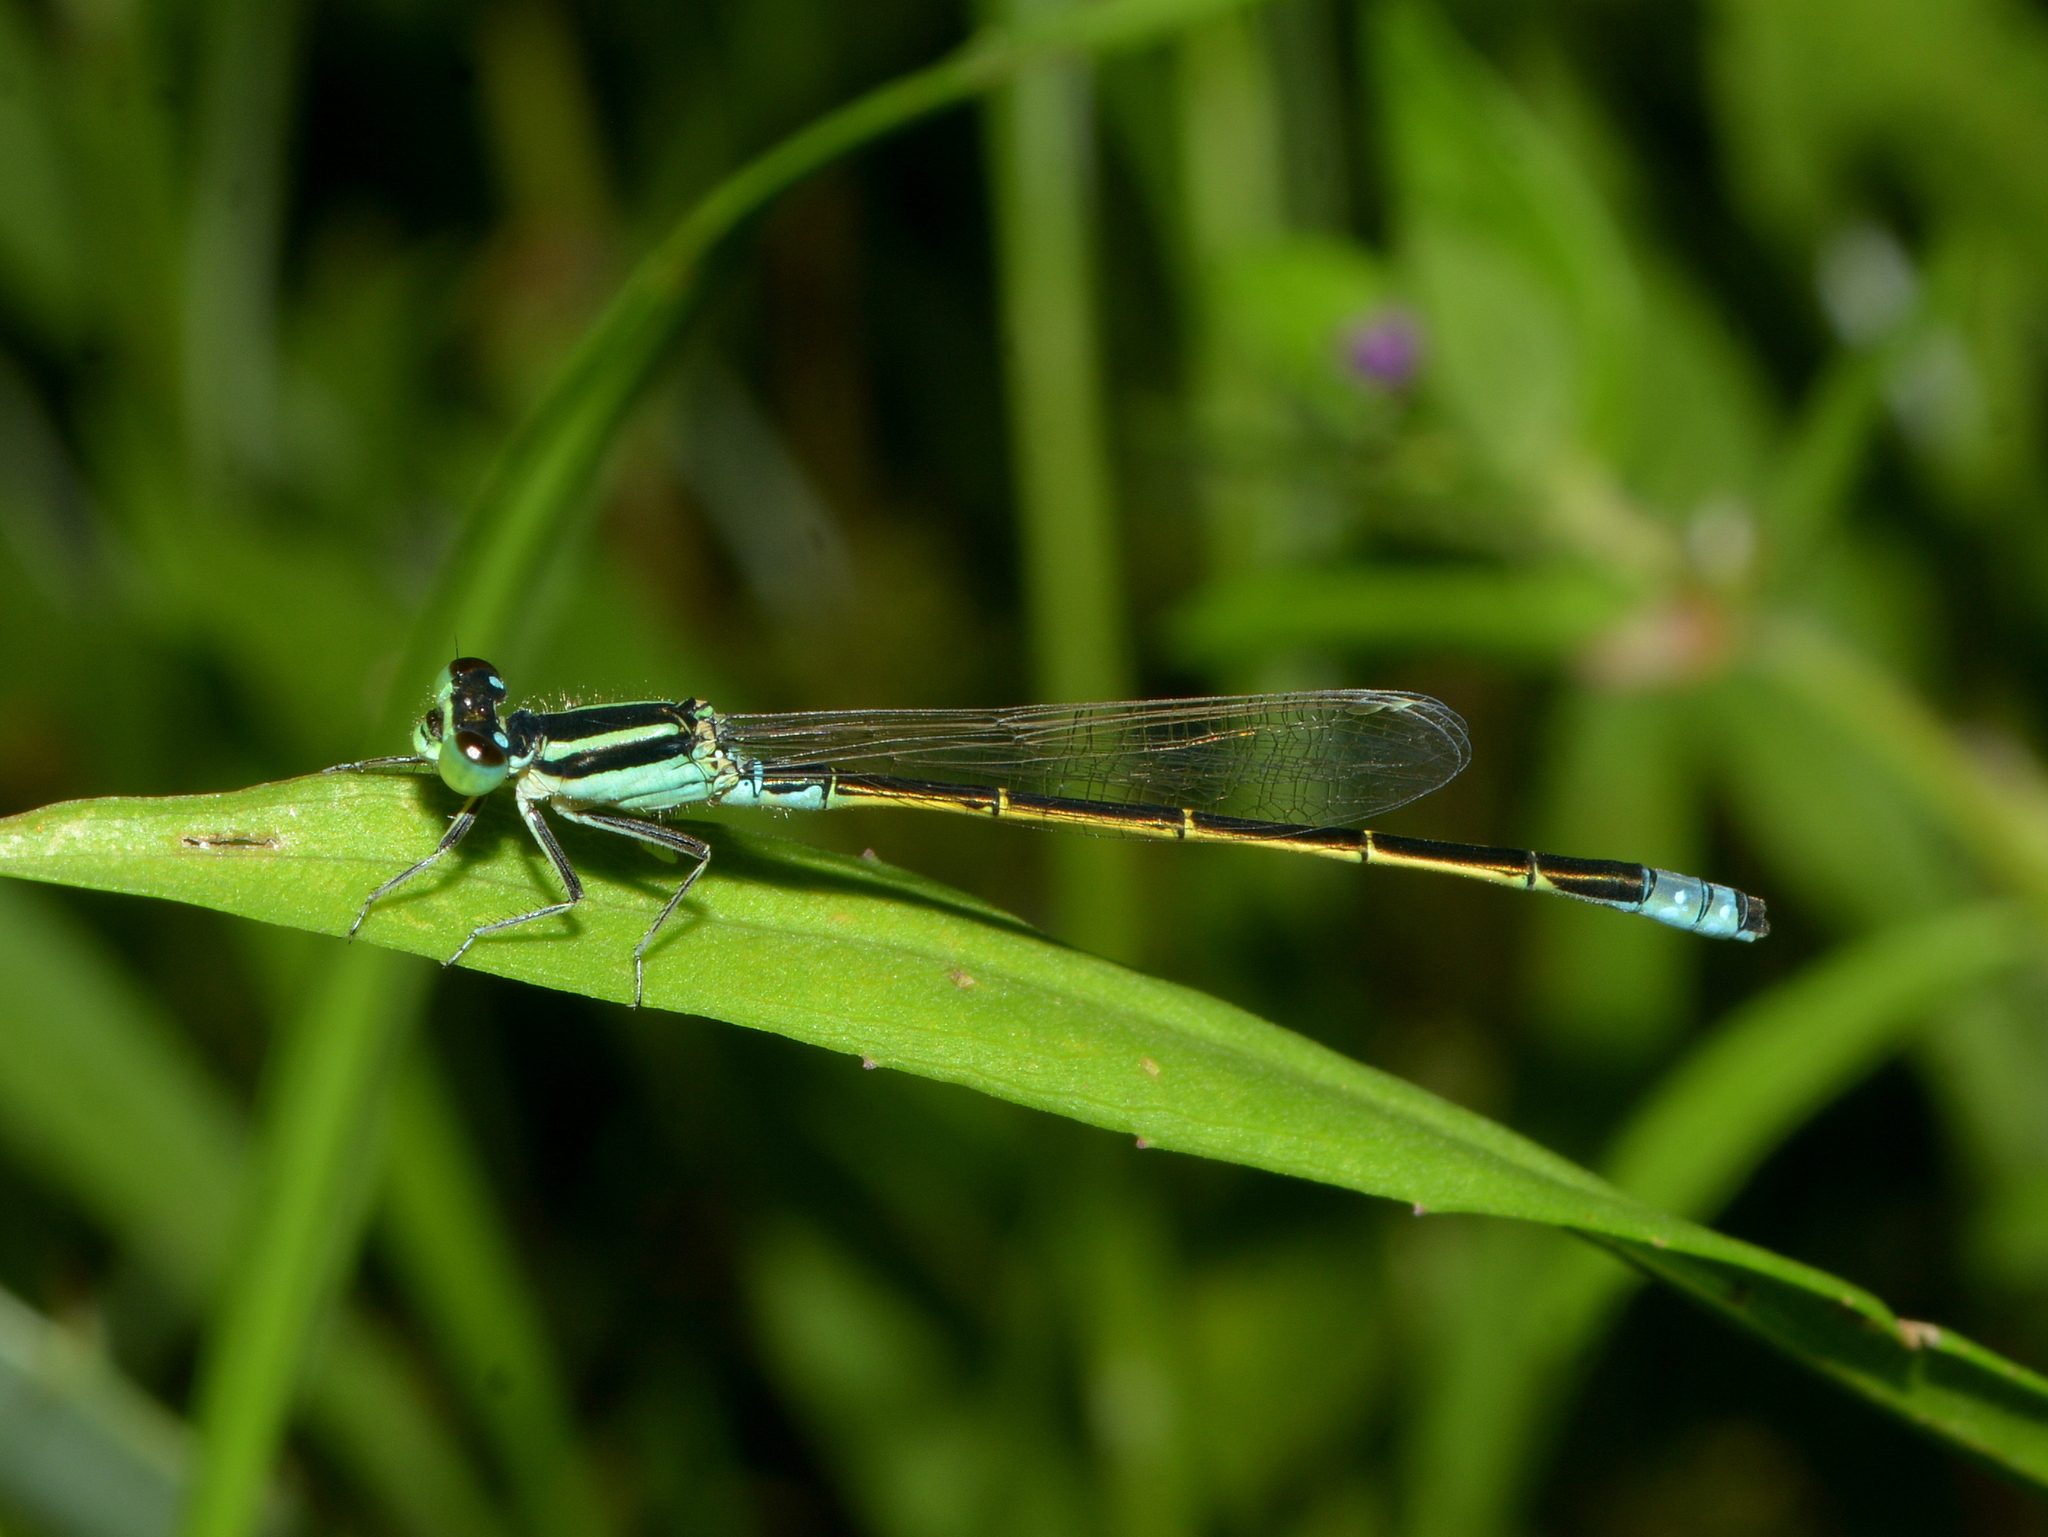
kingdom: Animalia
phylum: Arthropoda
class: Insecta
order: Odonata
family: Coenagrionidae
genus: Ischnura
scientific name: Ischnura fluviatilis
